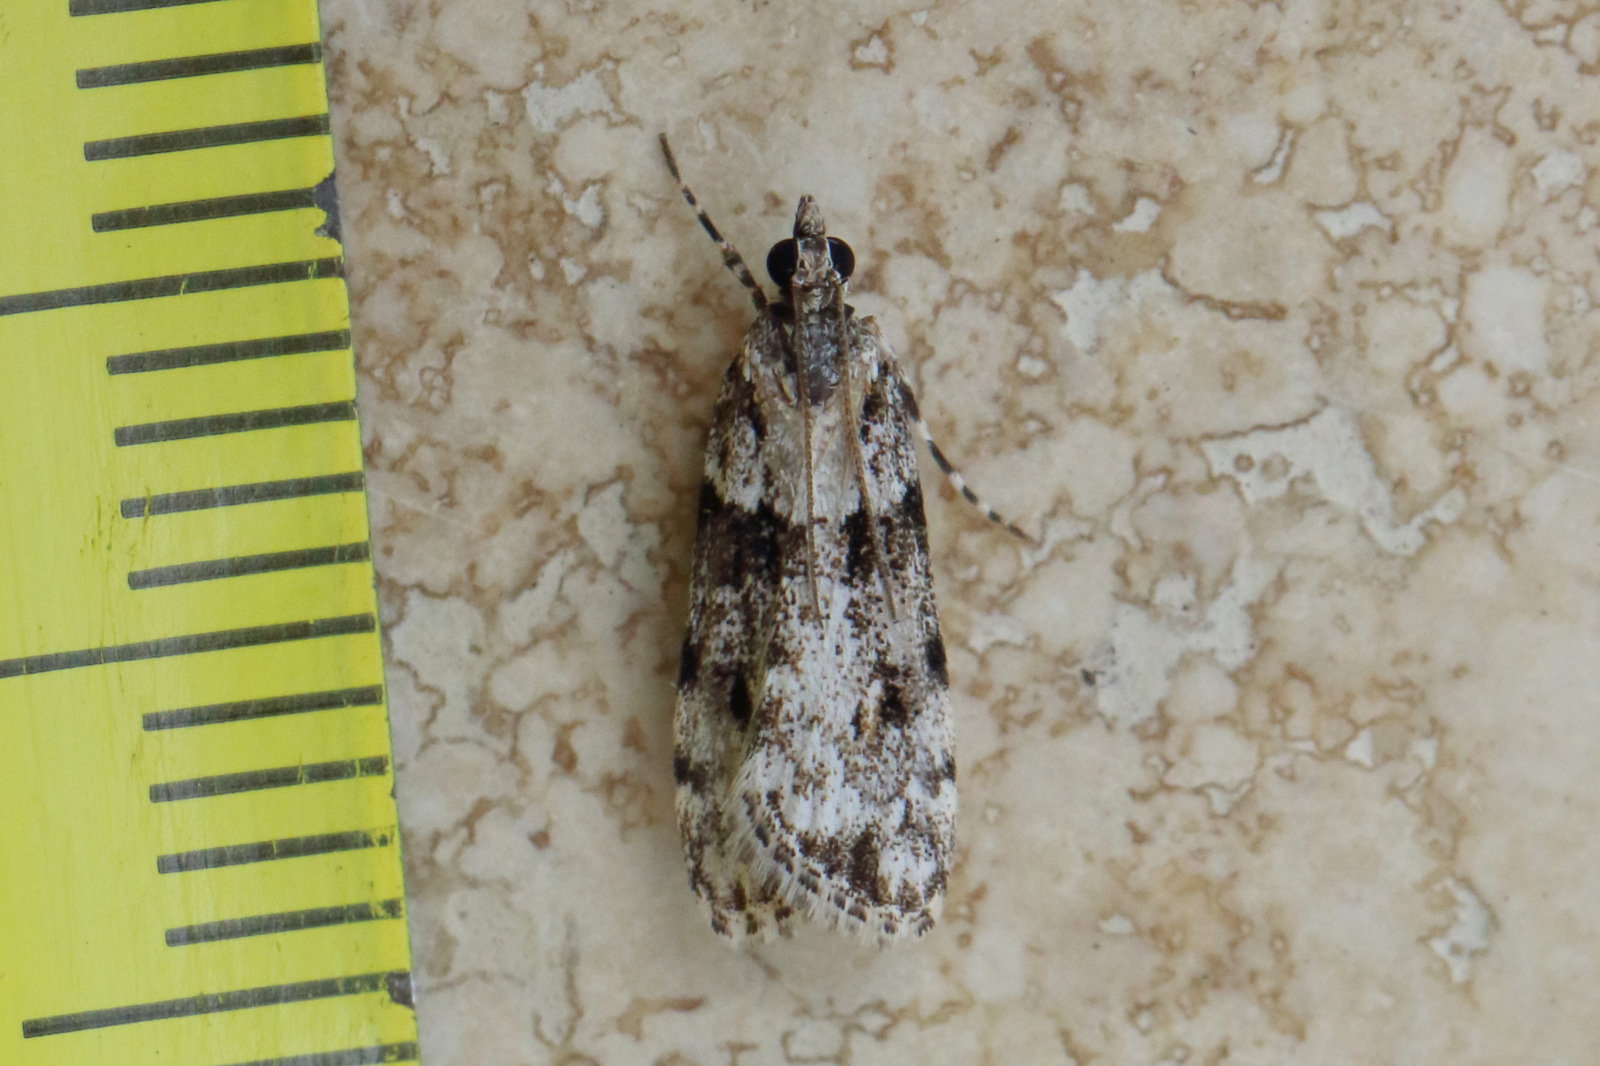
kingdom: Animalia
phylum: Arthropoda
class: Insecta
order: Lepidoptera
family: Crambidae
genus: Scoparia
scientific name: Scoparia chiasta
